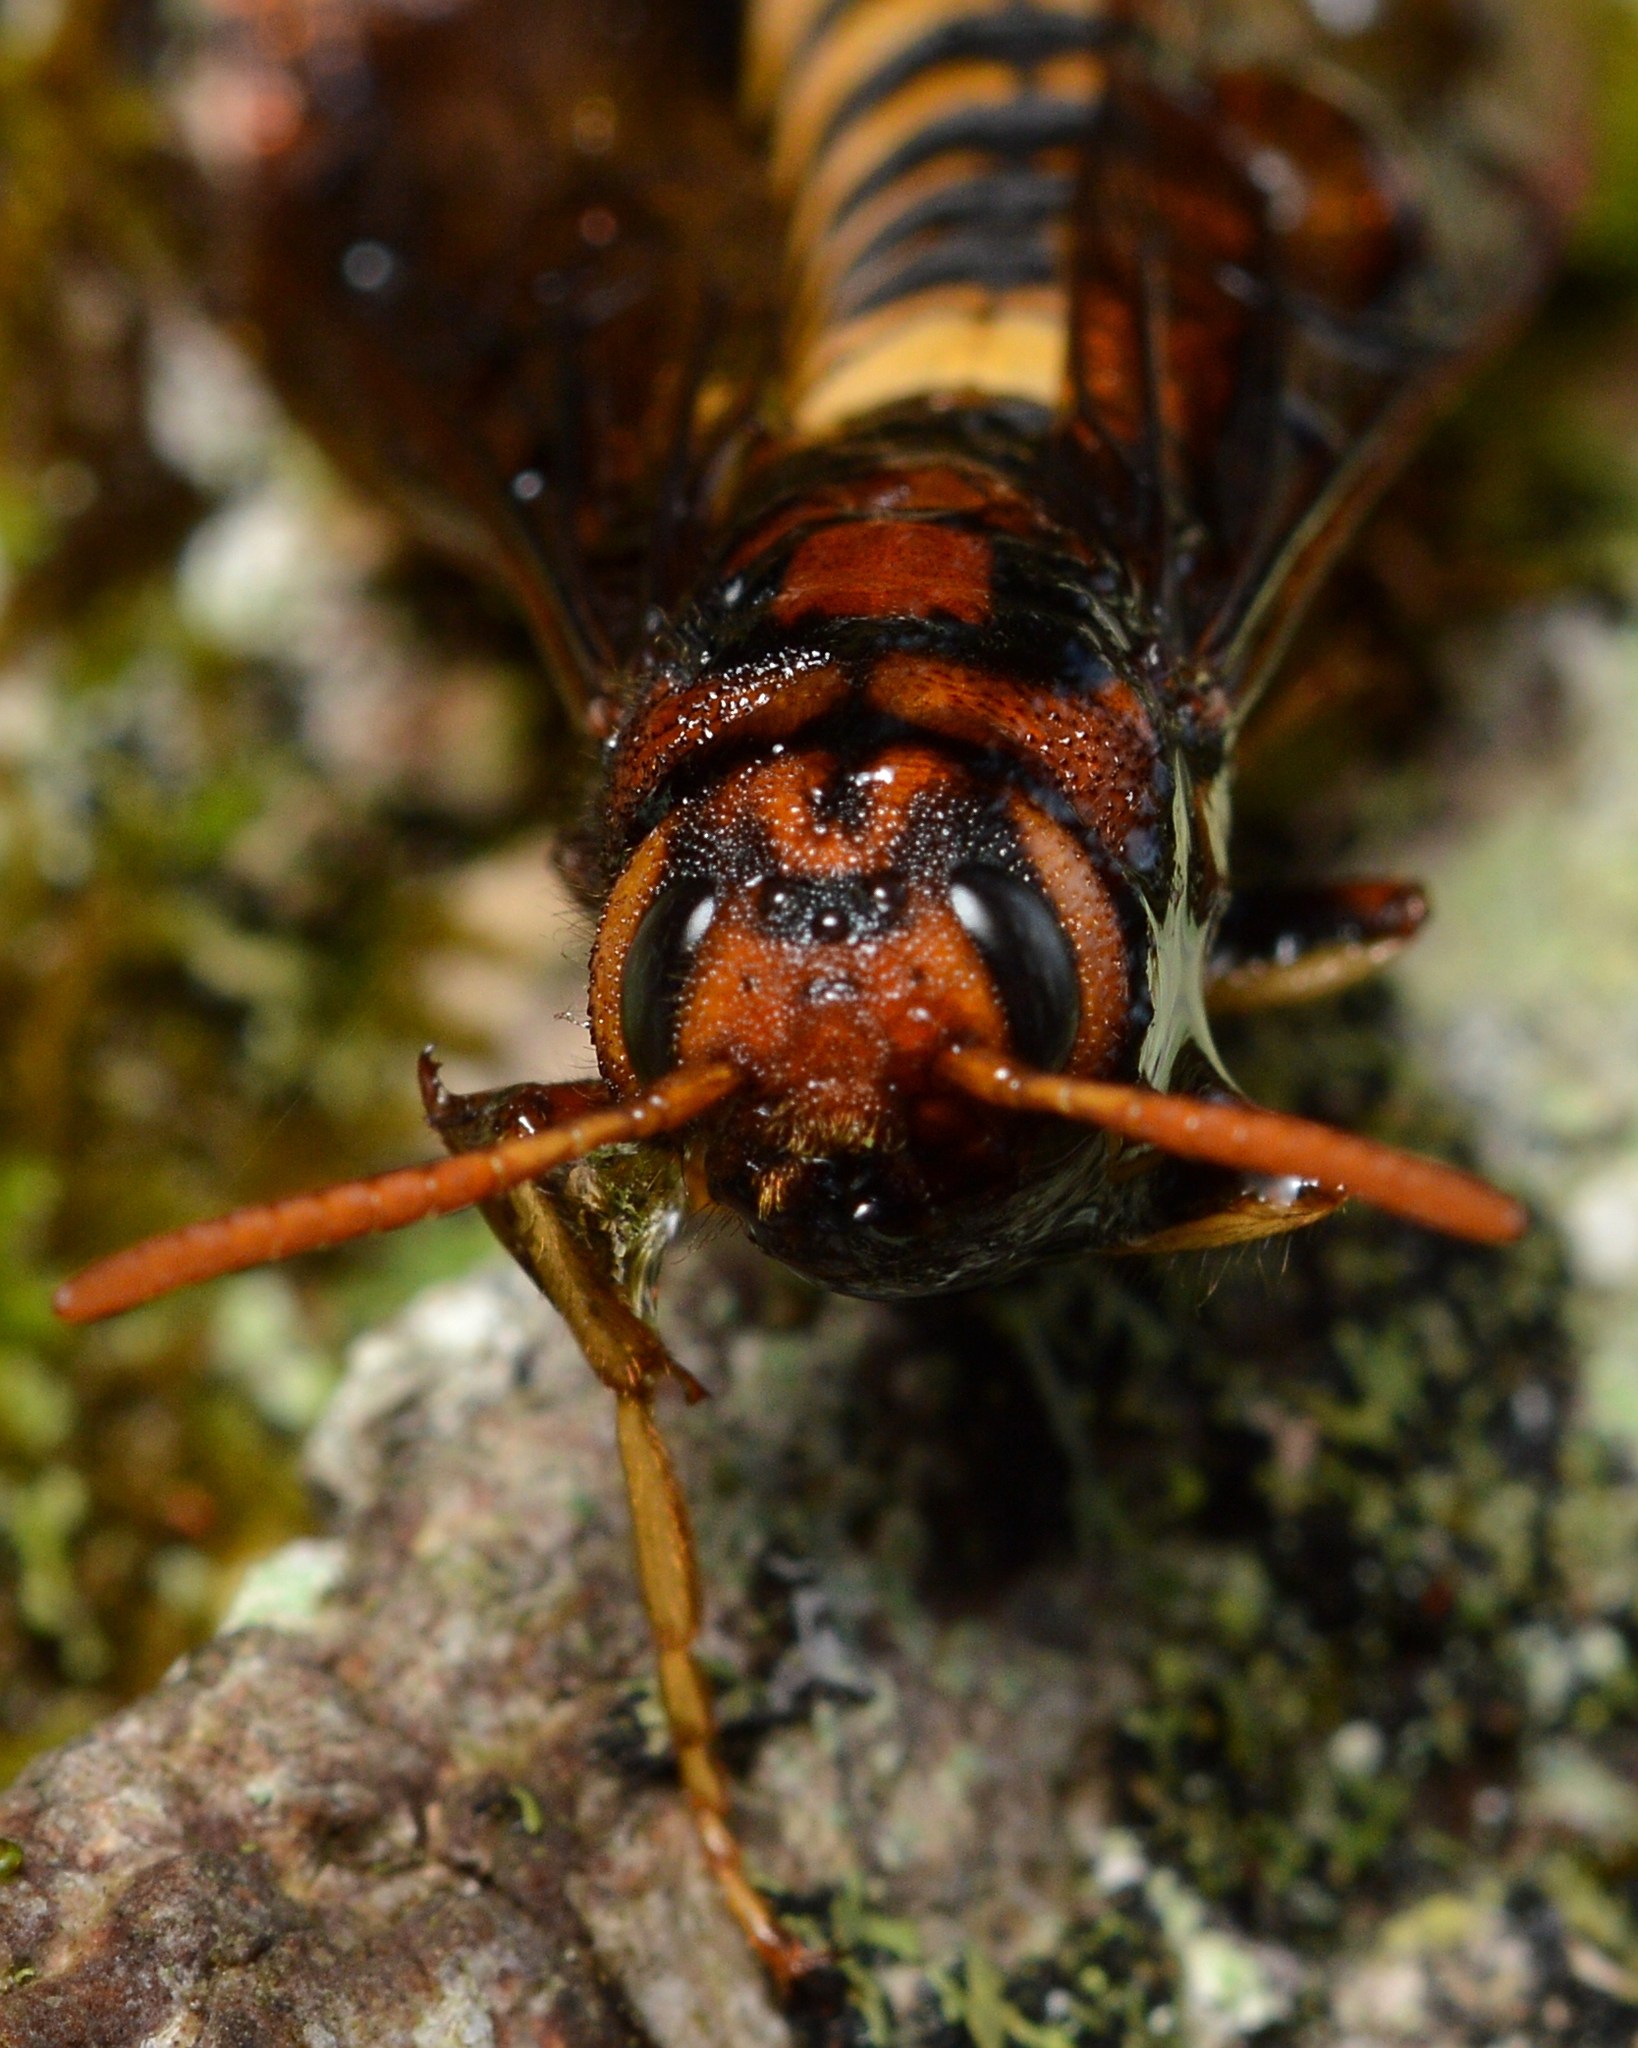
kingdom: Animalia
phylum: Arthropoda
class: Insecta
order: Hymenoptera
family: Siricidae
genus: Tremex
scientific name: Tremex columba
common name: Wasp
